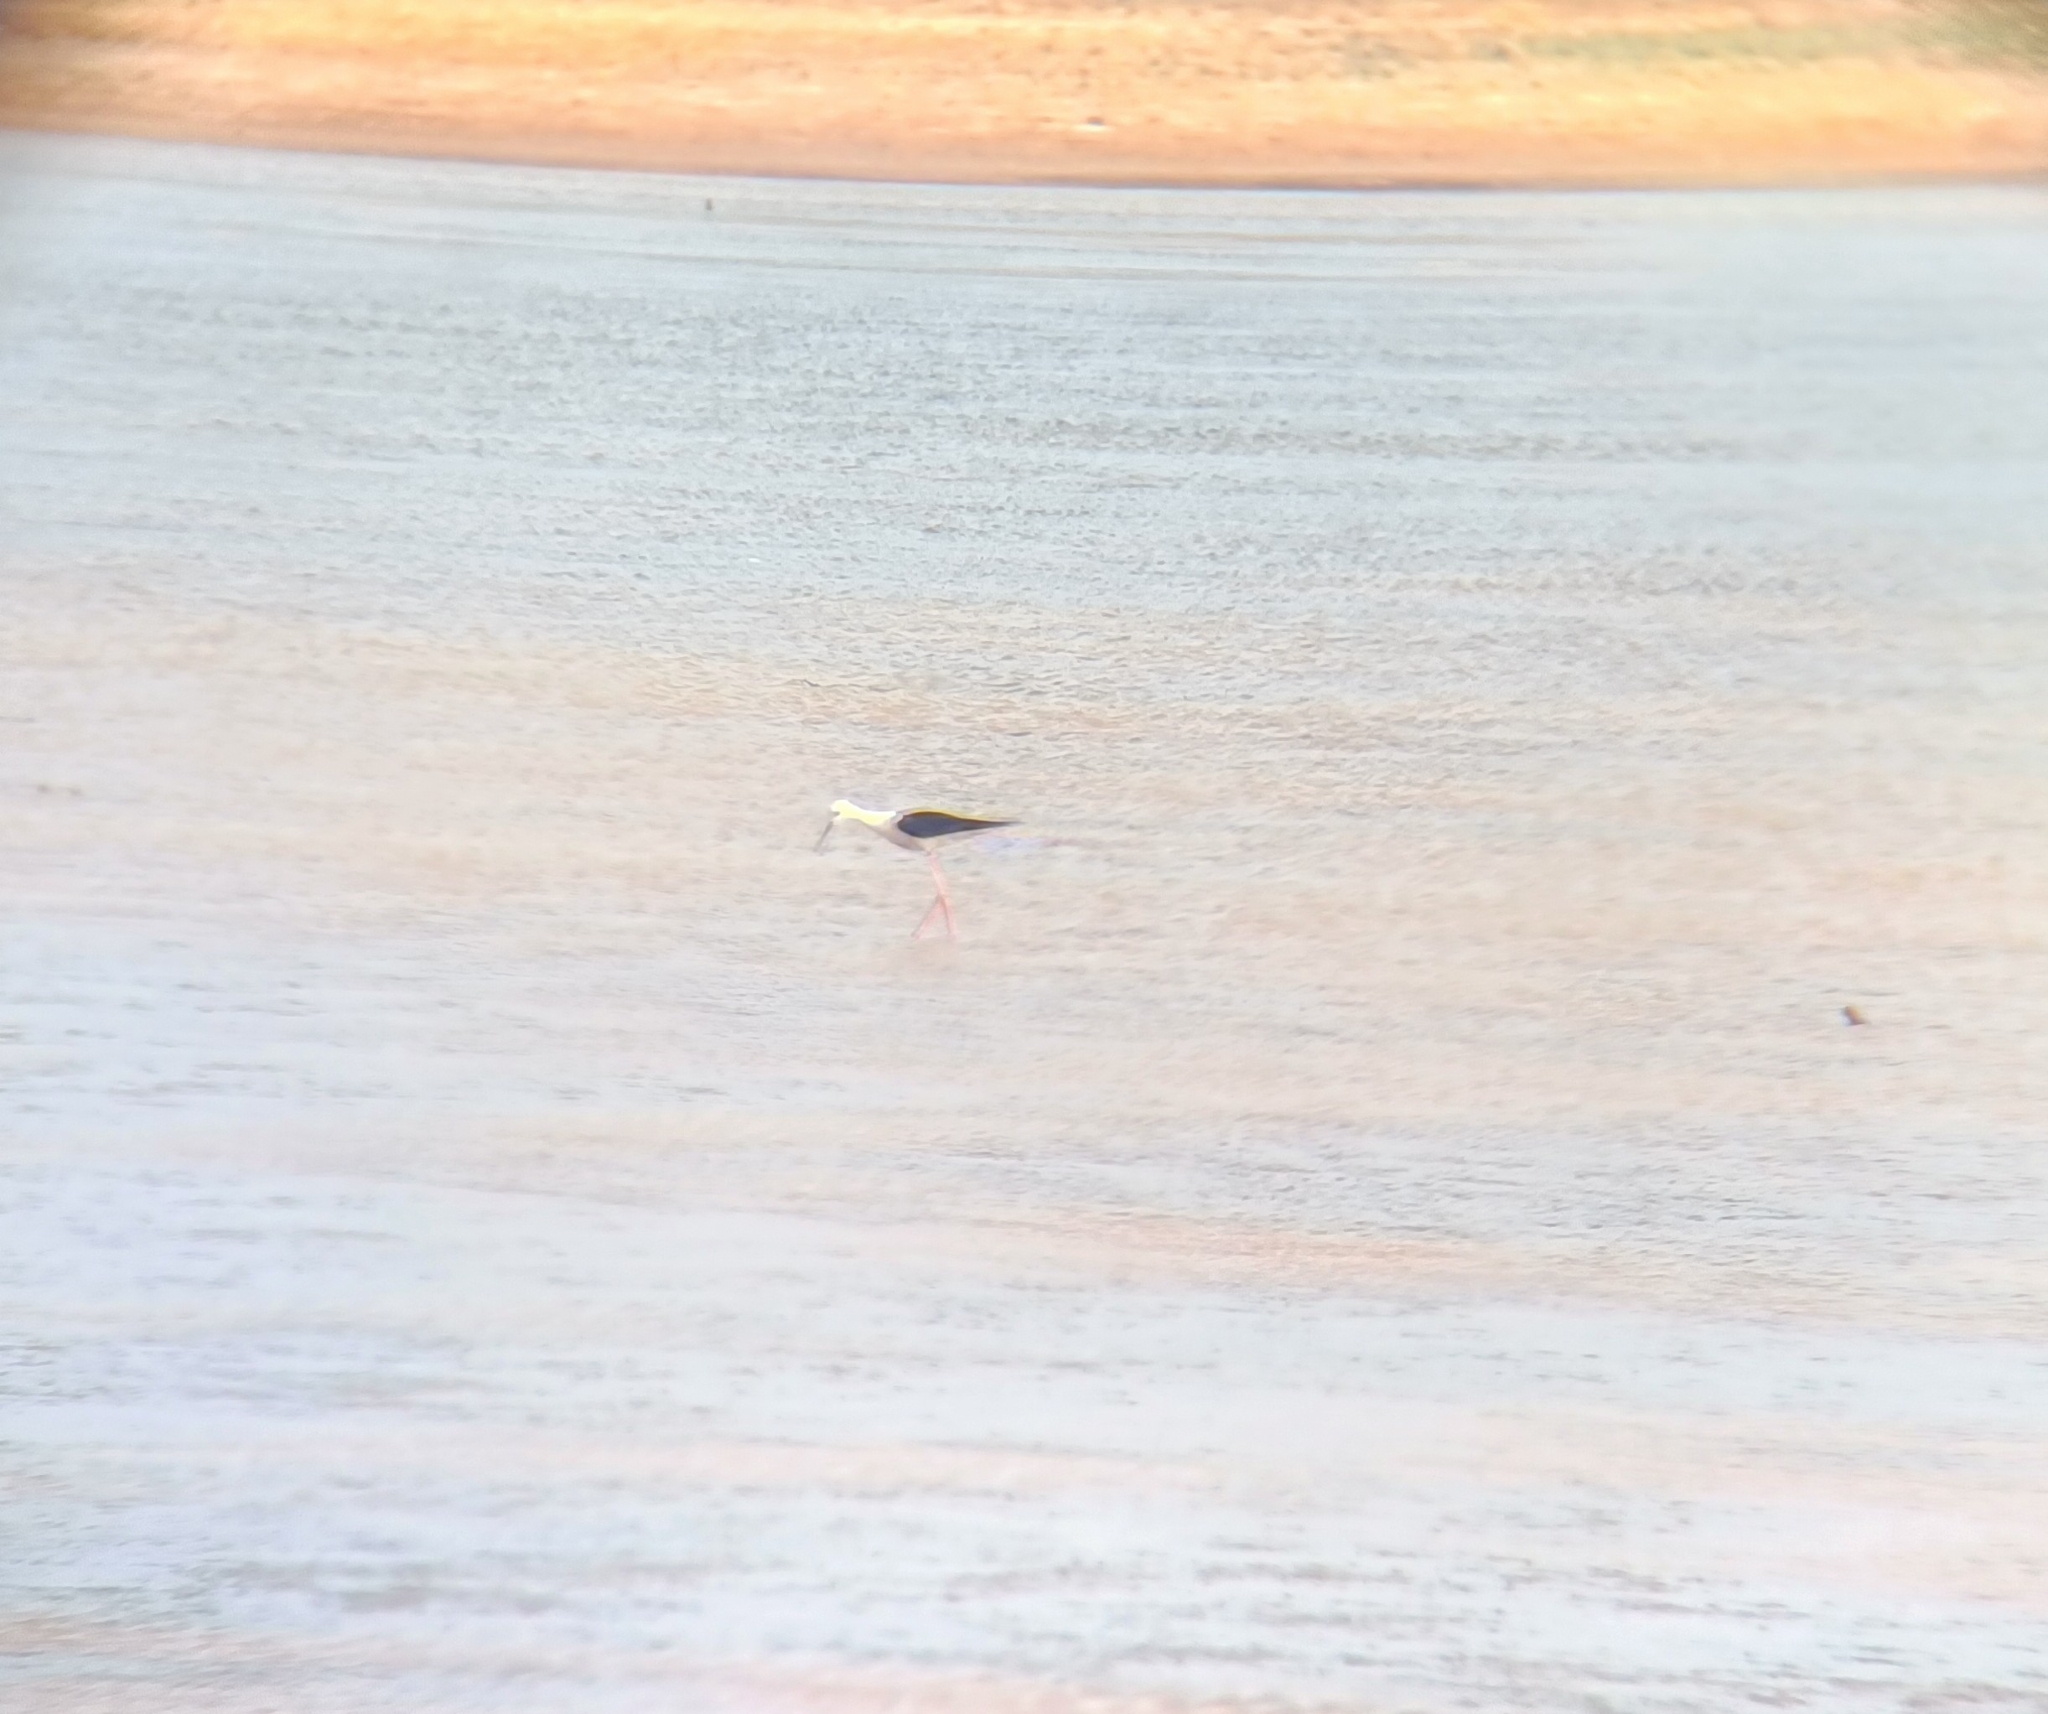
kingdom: Animalia
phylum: Chordata
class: Aves
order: Charadriiformes
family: Recurvirostridae
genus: Himantopus
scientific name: Himantopus himantopus
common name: Black-winged stilt
